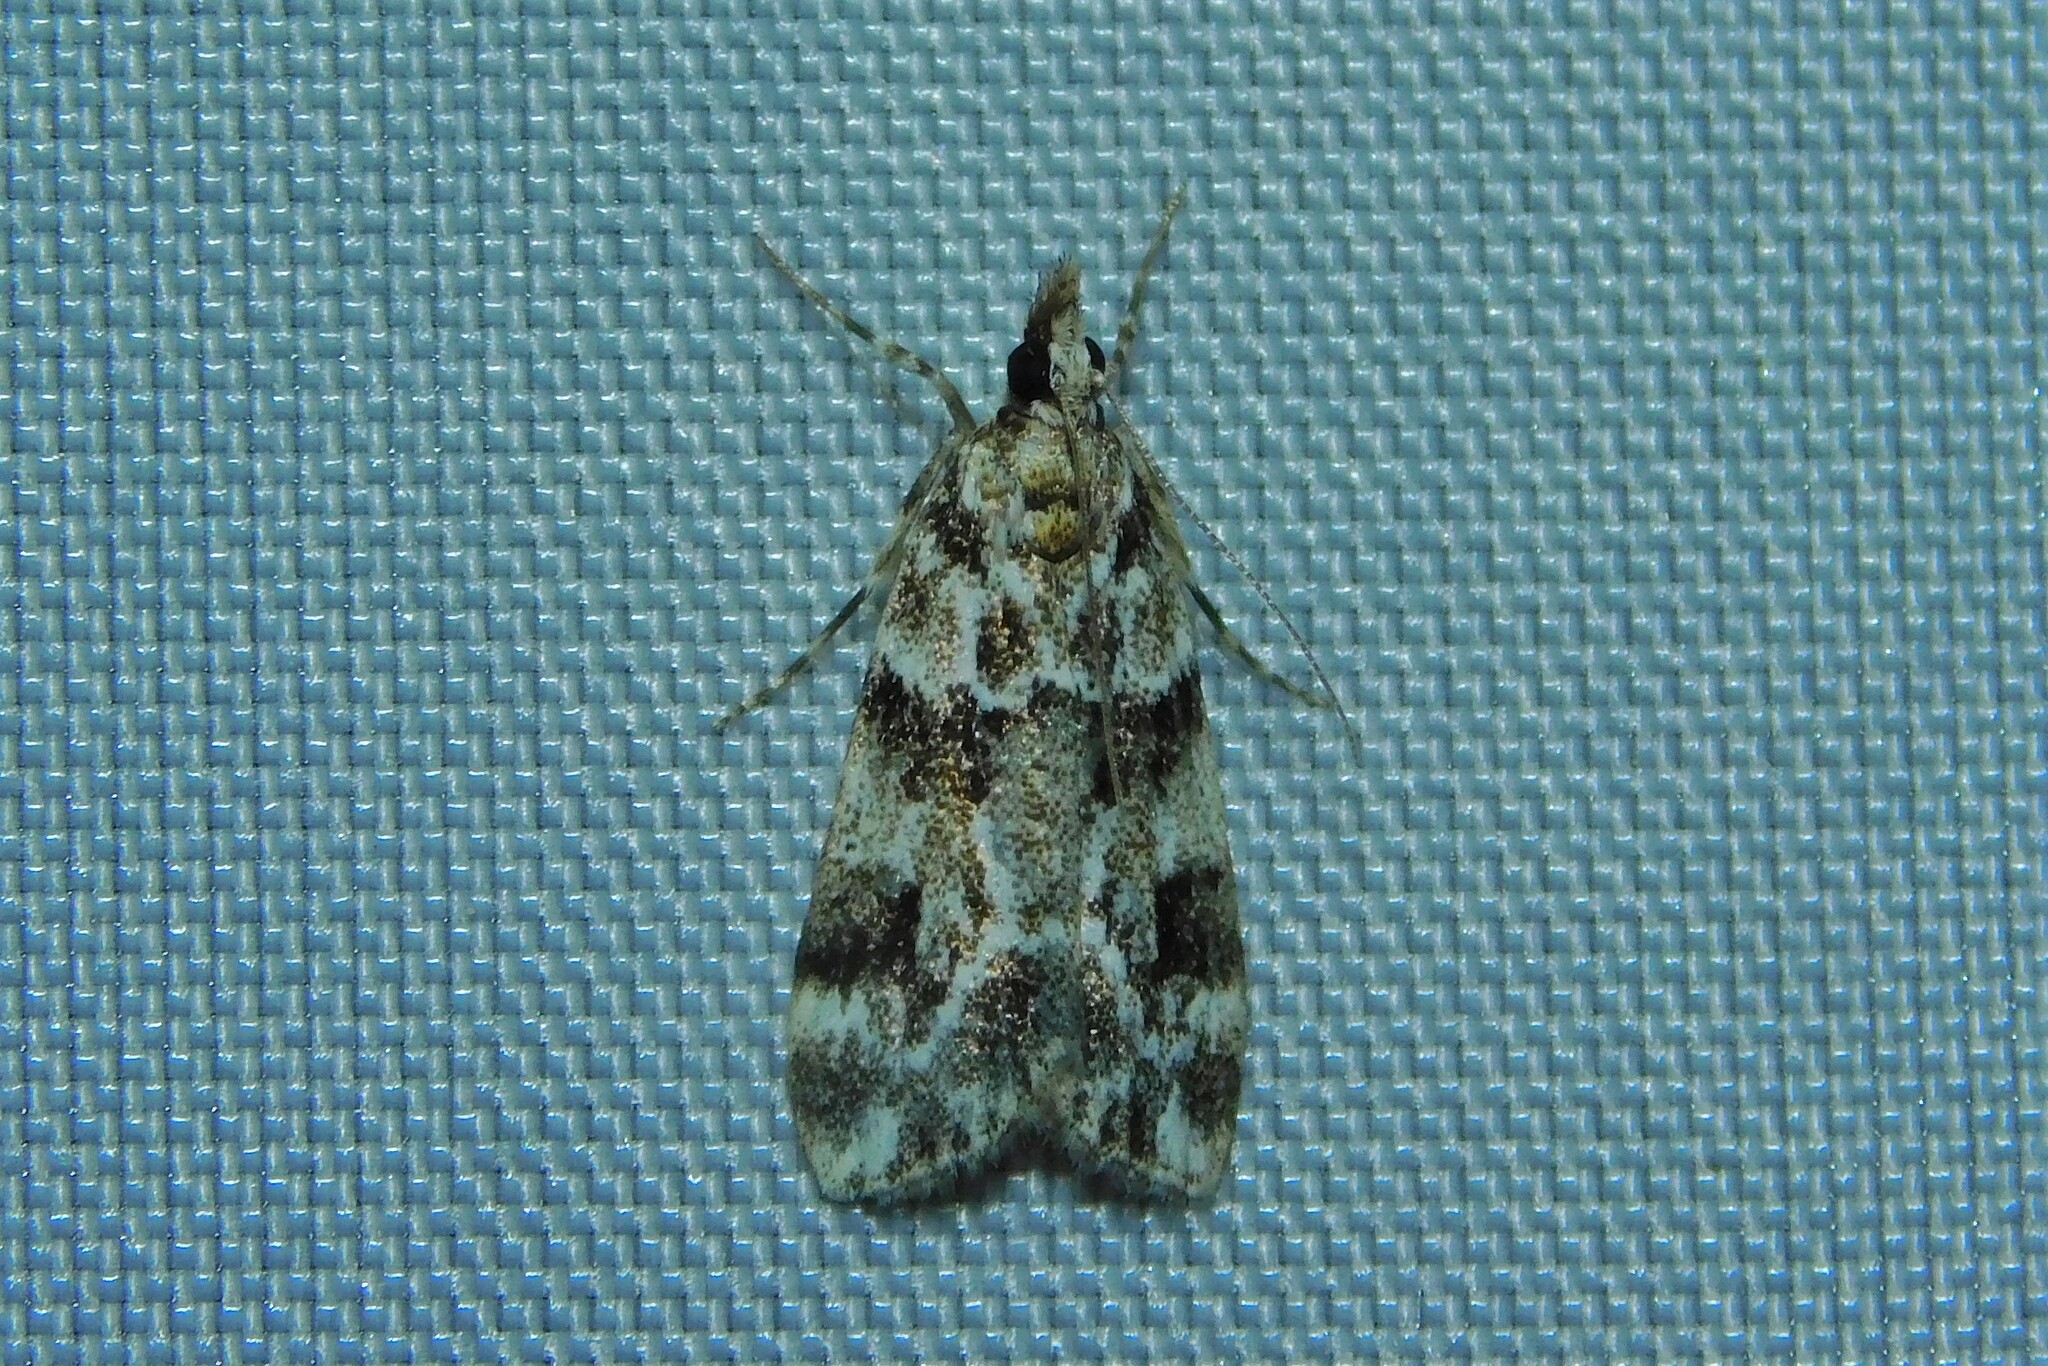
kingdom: Animalia
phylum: Arthropoda
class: Insecta
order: Lepidoptera
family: Crambidae
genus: Eudonia
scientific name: Eudonia delunella
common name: Pied grey
